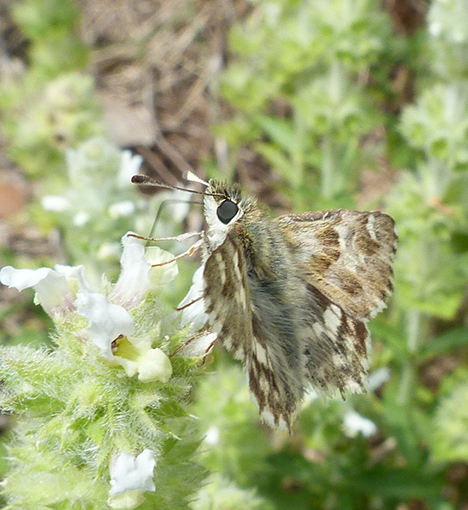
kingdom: Animalia
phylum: Arthropoda
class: Insecta
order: Lepidoptera
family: Hesperiidae
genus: Carcharodus
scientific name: Carcharodus lavatherae
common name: Marbled skipper
